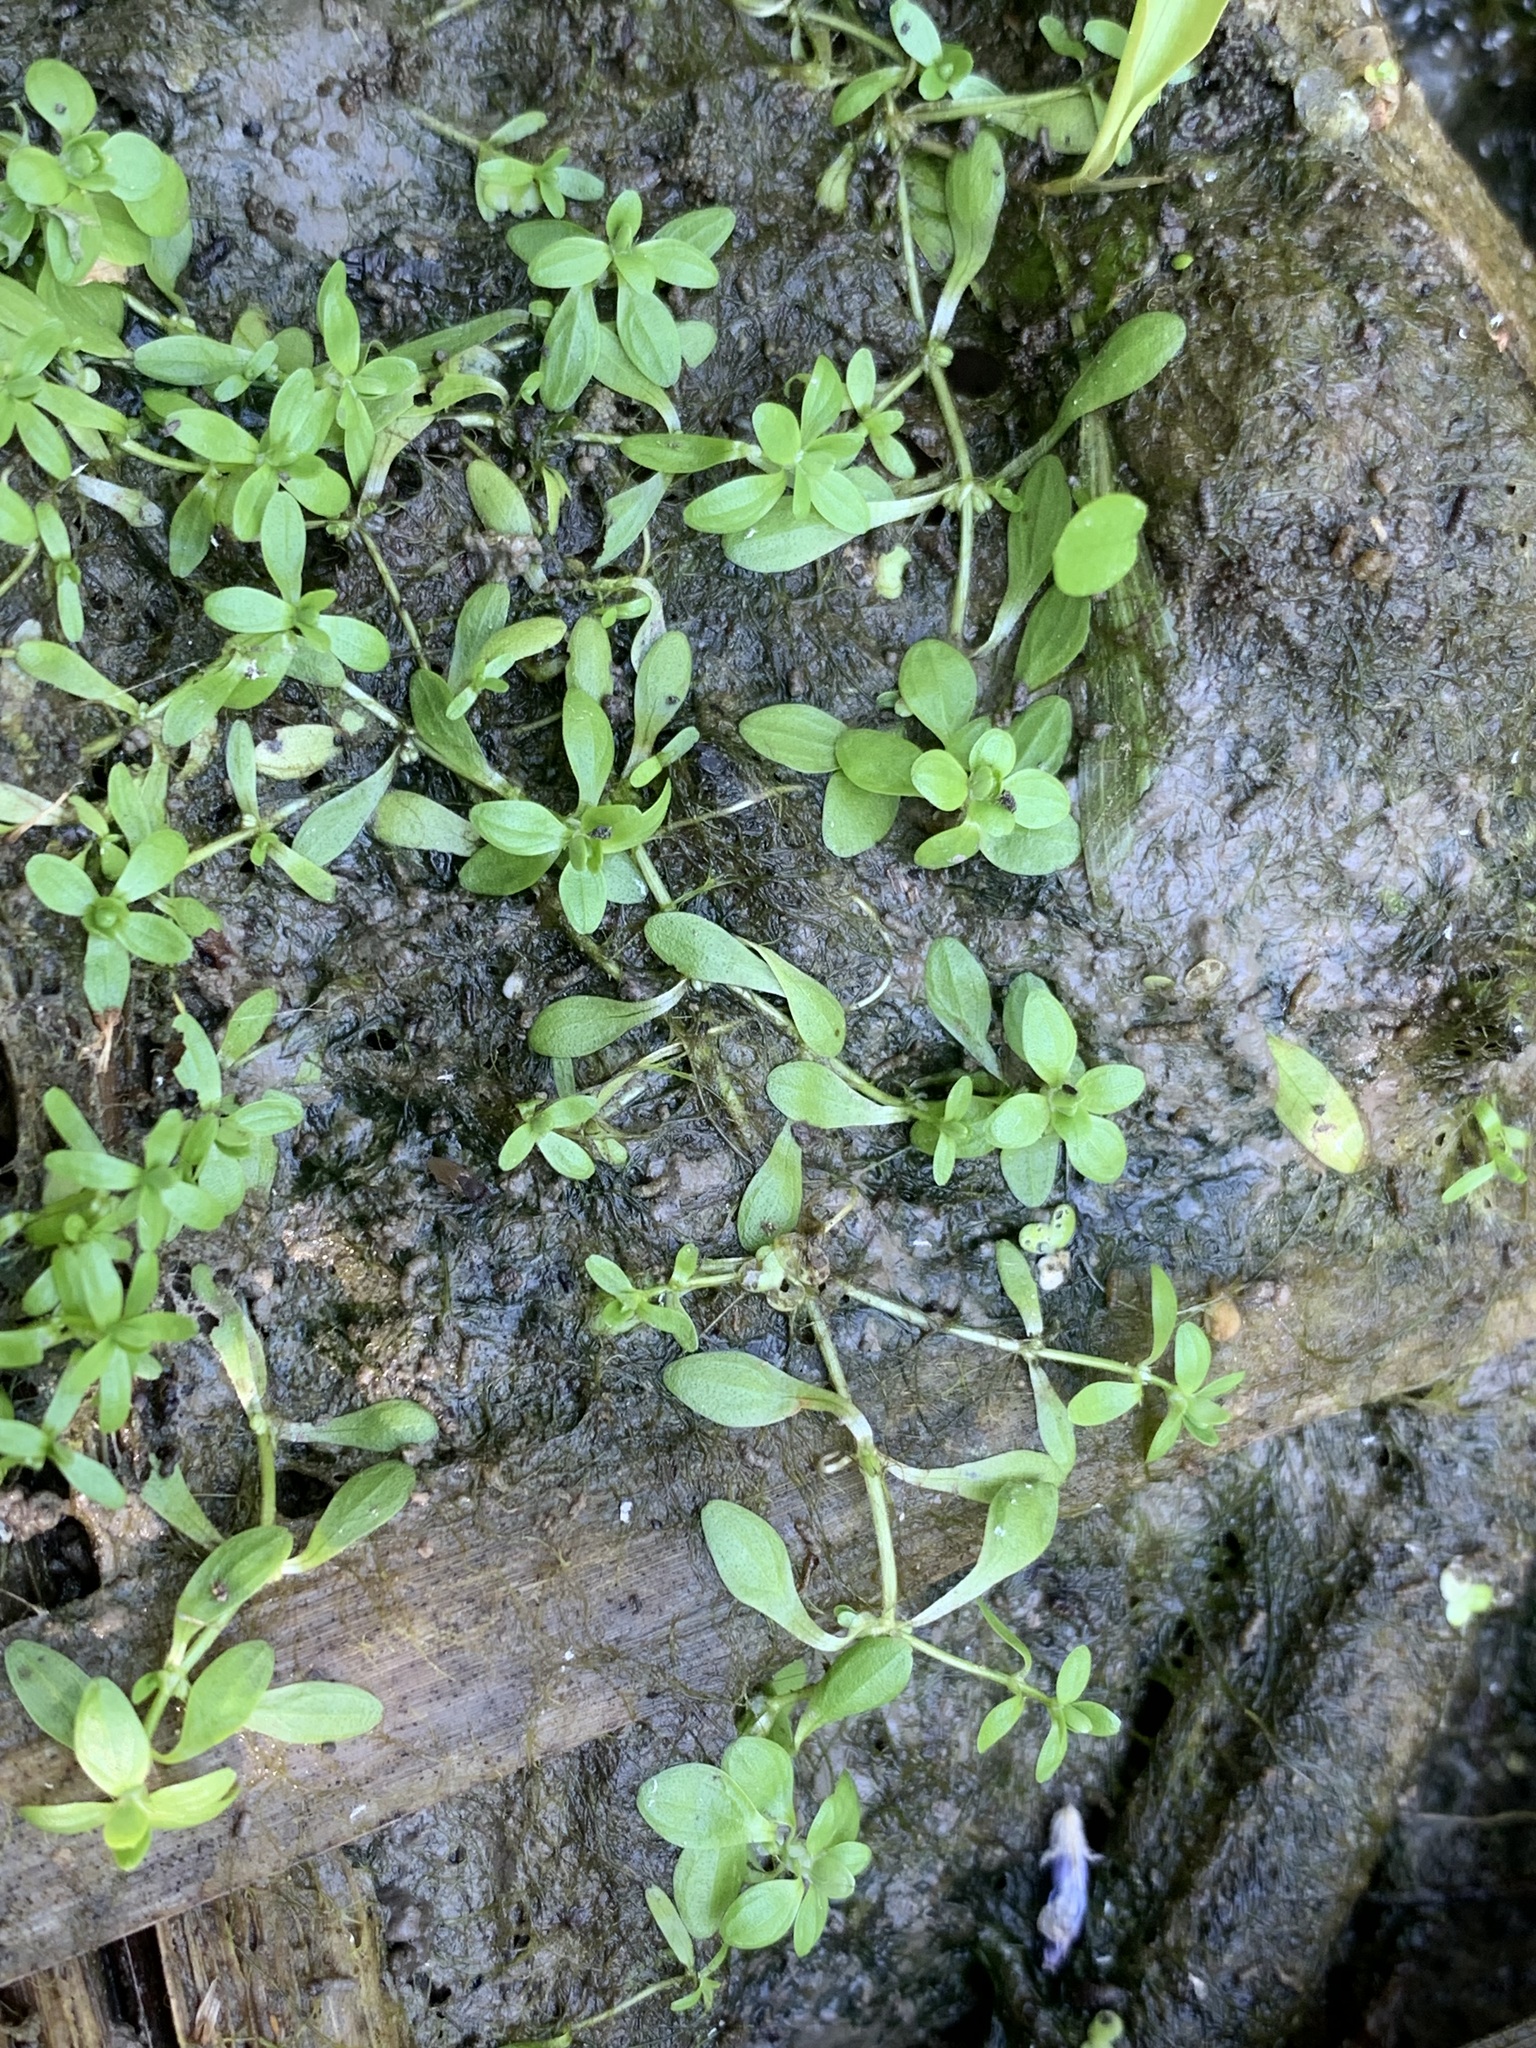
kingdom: Plantae
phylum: Tracheophyta
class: Magnoliopsida
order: Lamiales
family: Plantaginaceae
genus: Callitriche
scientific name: Callitriche palustris
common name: Spring water-starwort
